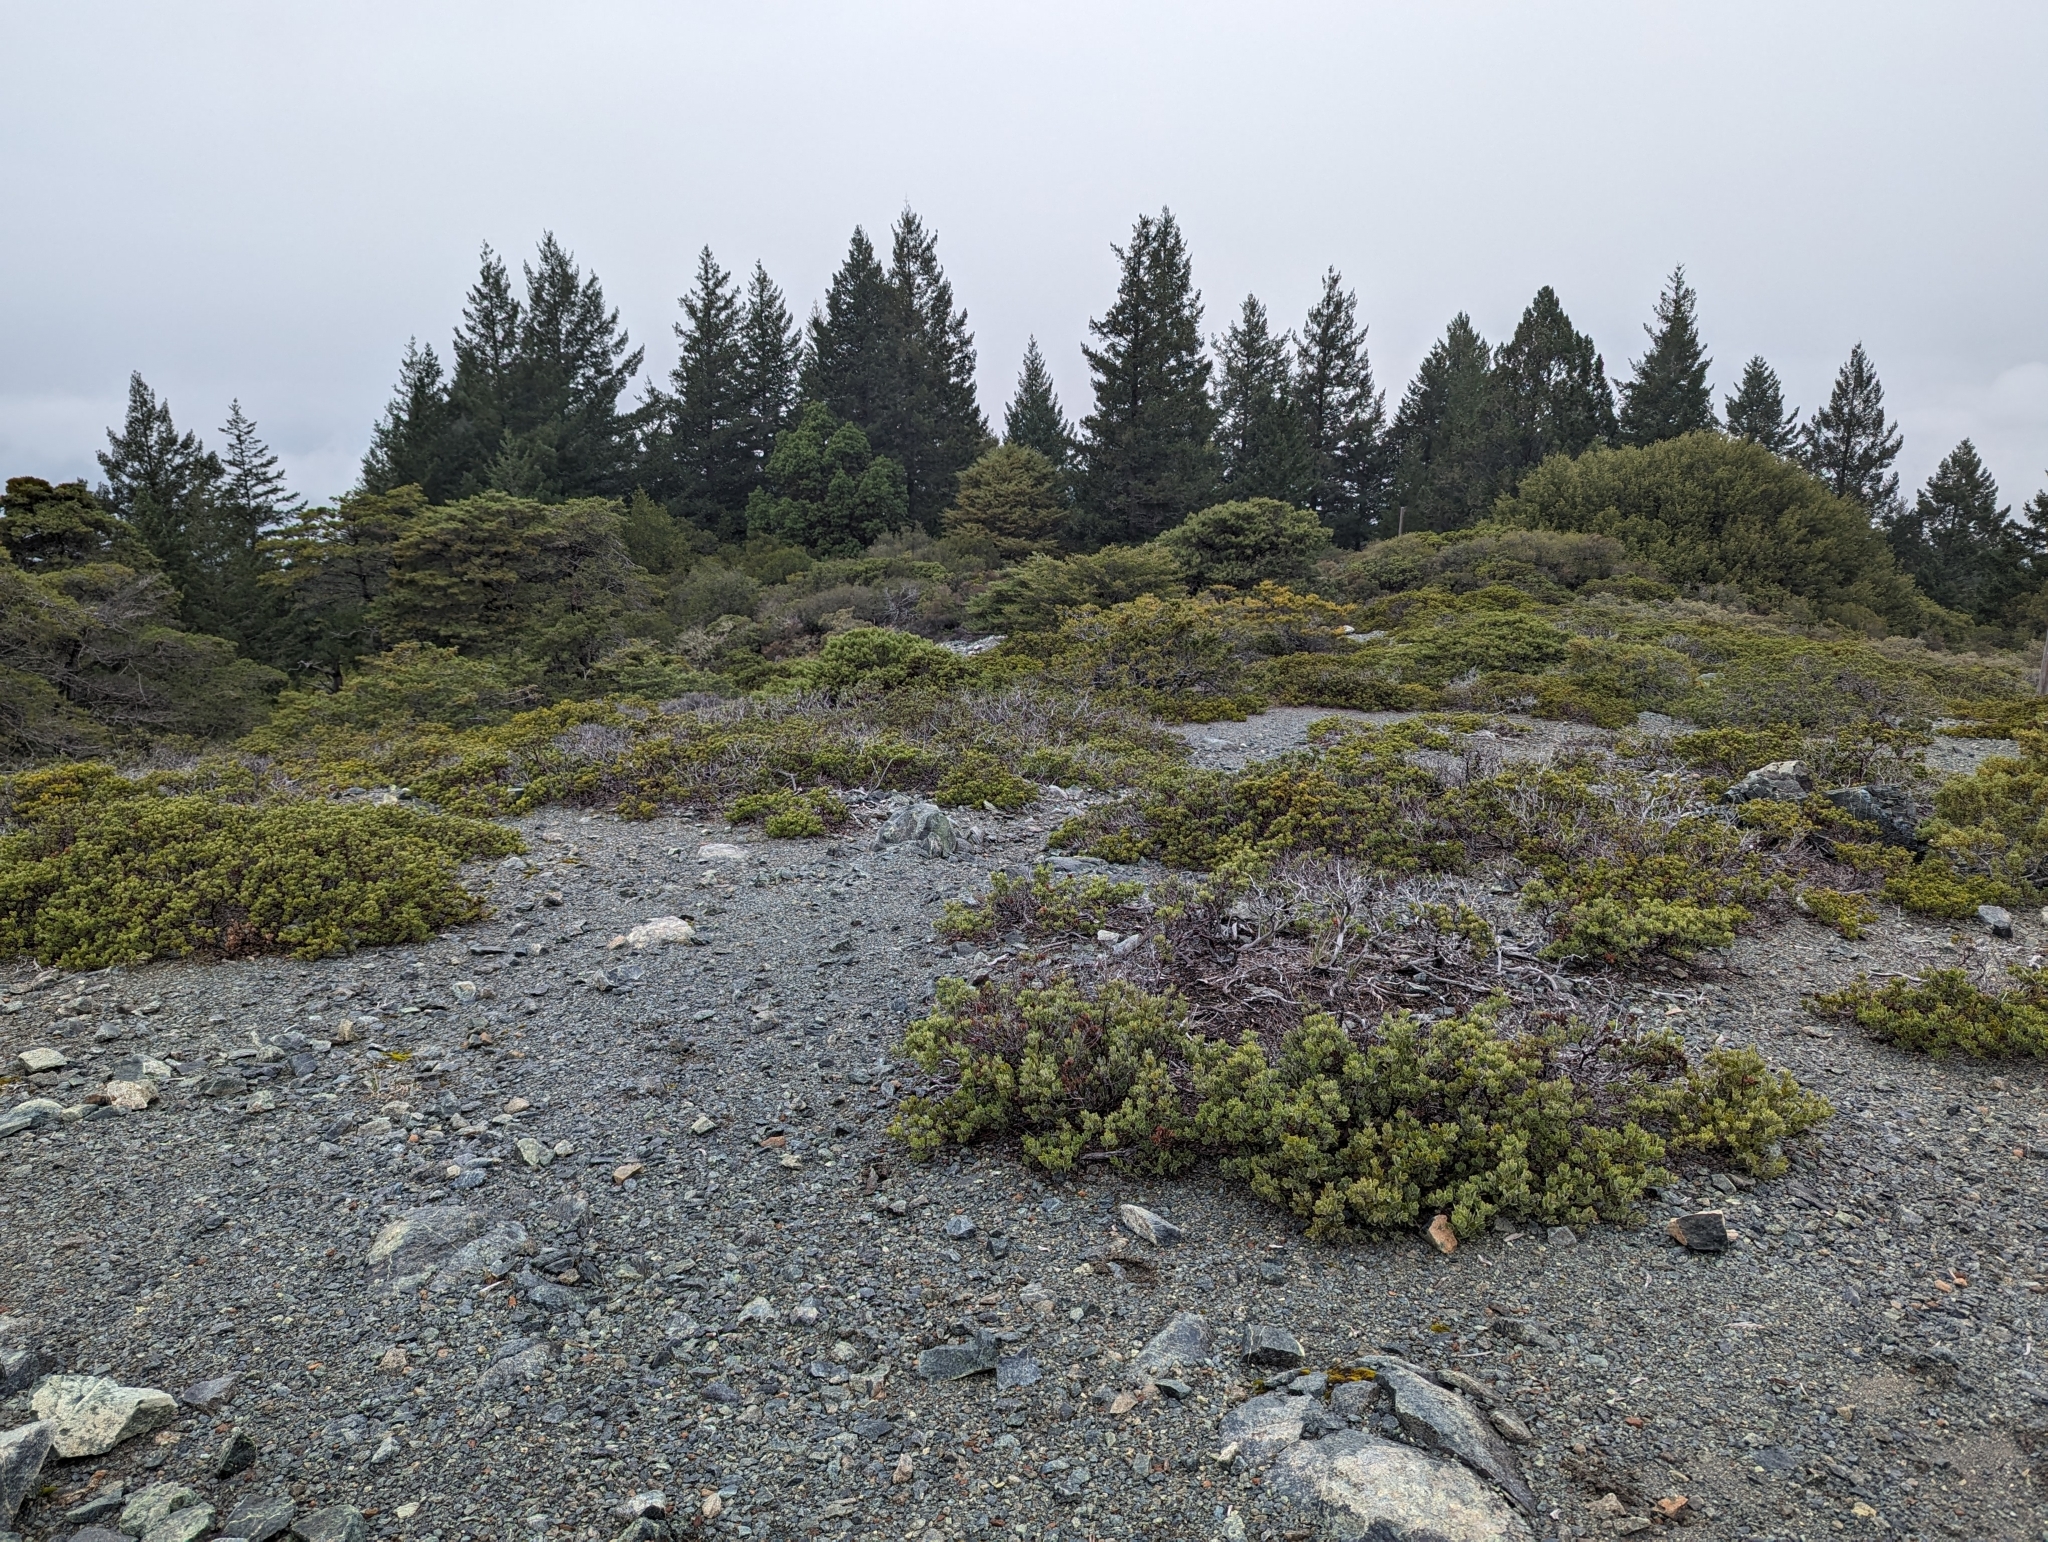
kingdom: Plantae
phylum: Tracheophyta
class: Magnoliopsida
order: Ericales
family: Ericaceae
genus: Arctostaphylos
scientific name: Arctostaphylos montana
